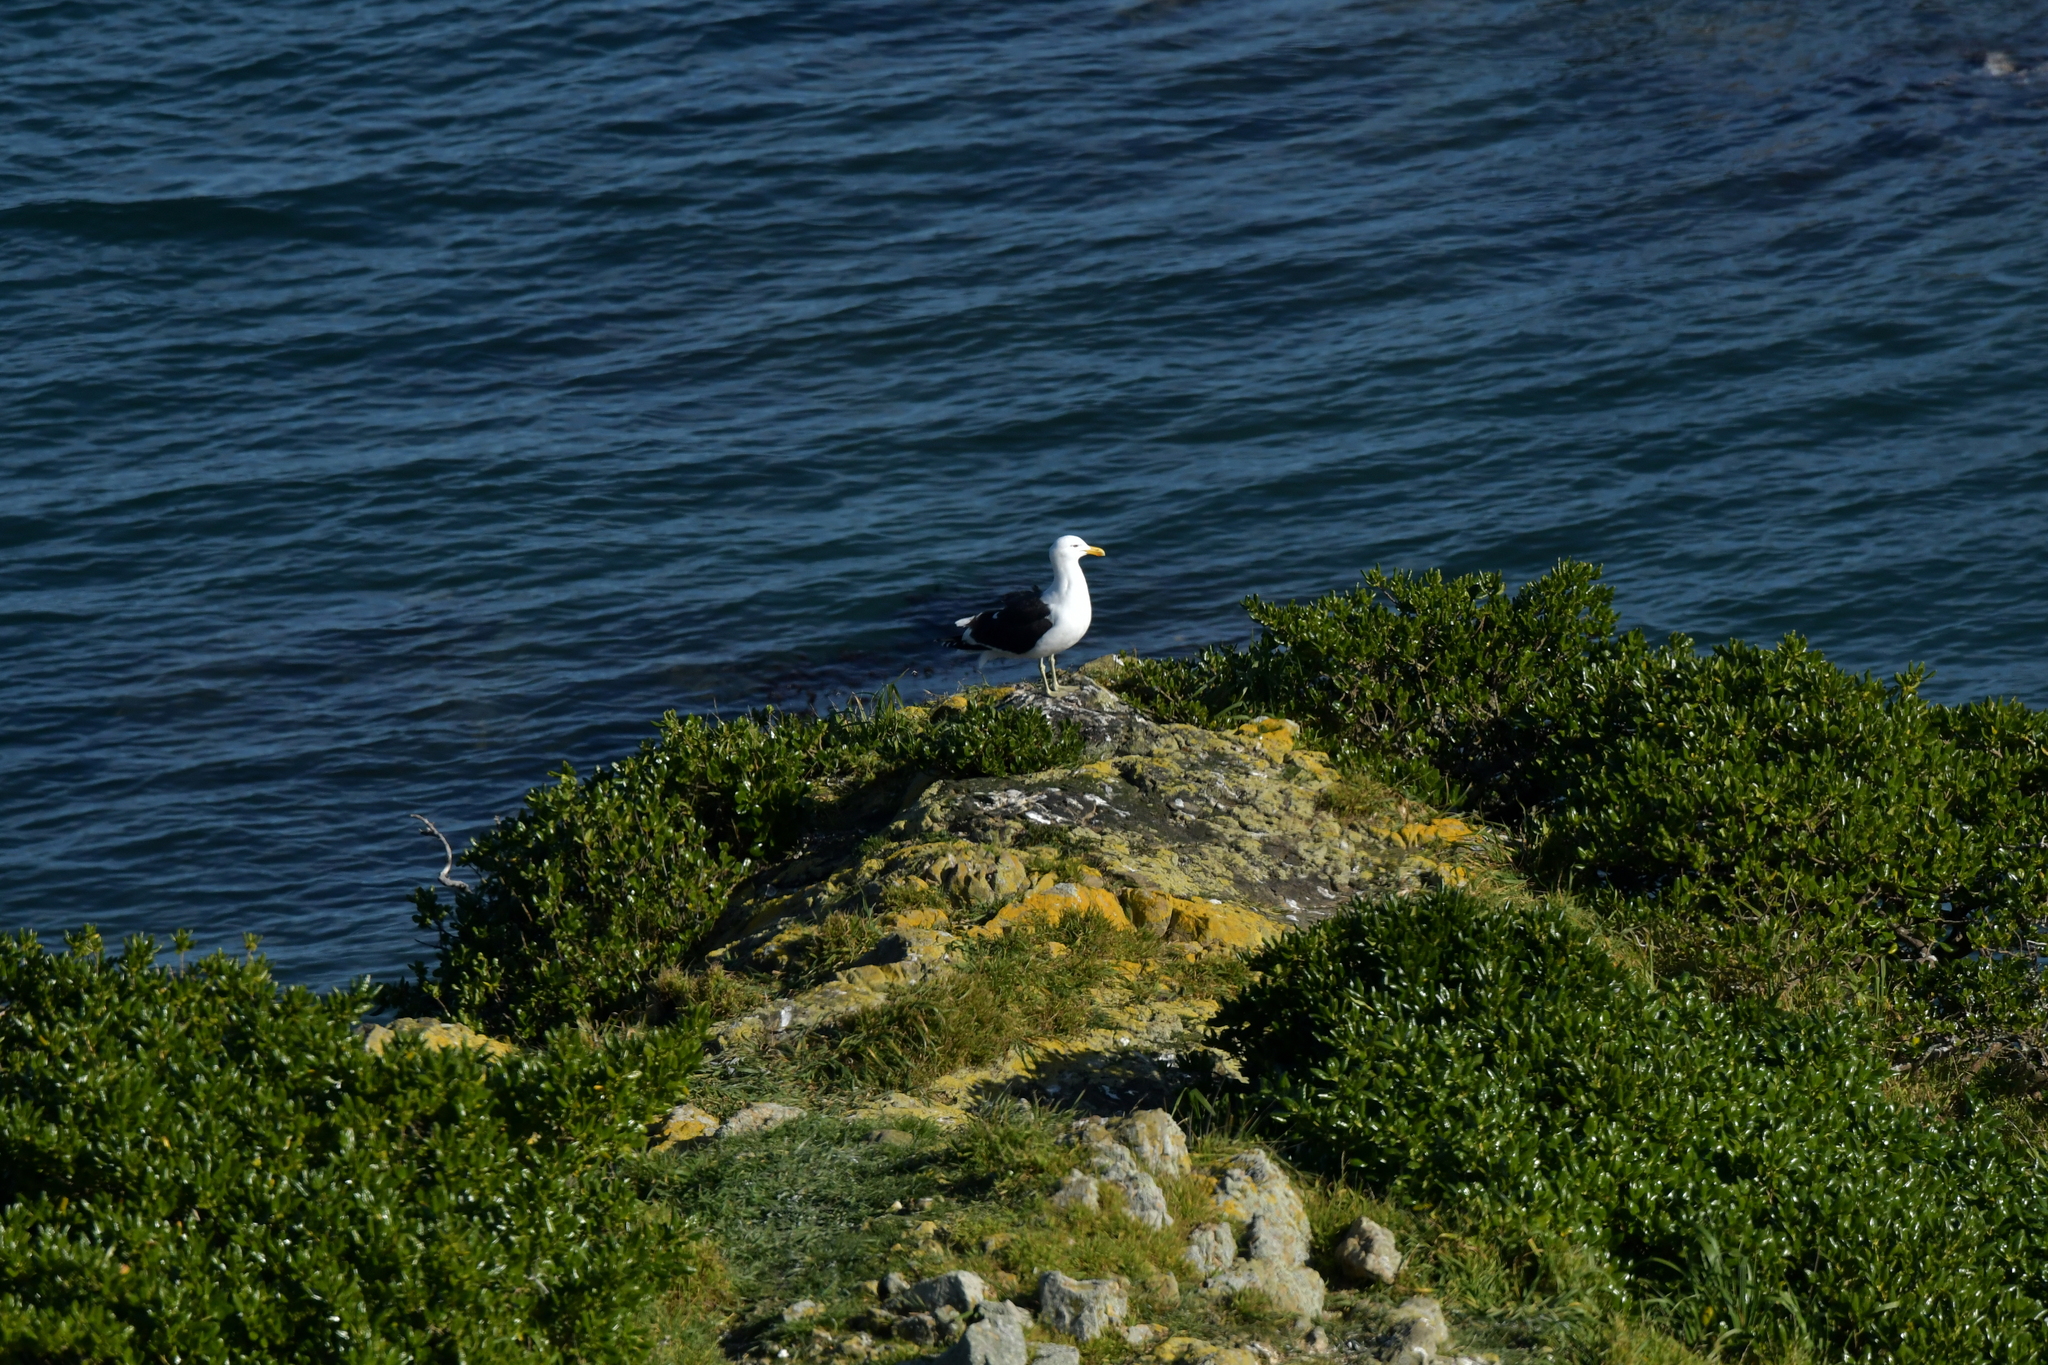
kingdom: Animalia
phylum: Chordata
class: Aves
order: Charadriiformes
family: Laridae
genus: Larus
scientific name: Larus dominicanus
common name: Kelp gull
